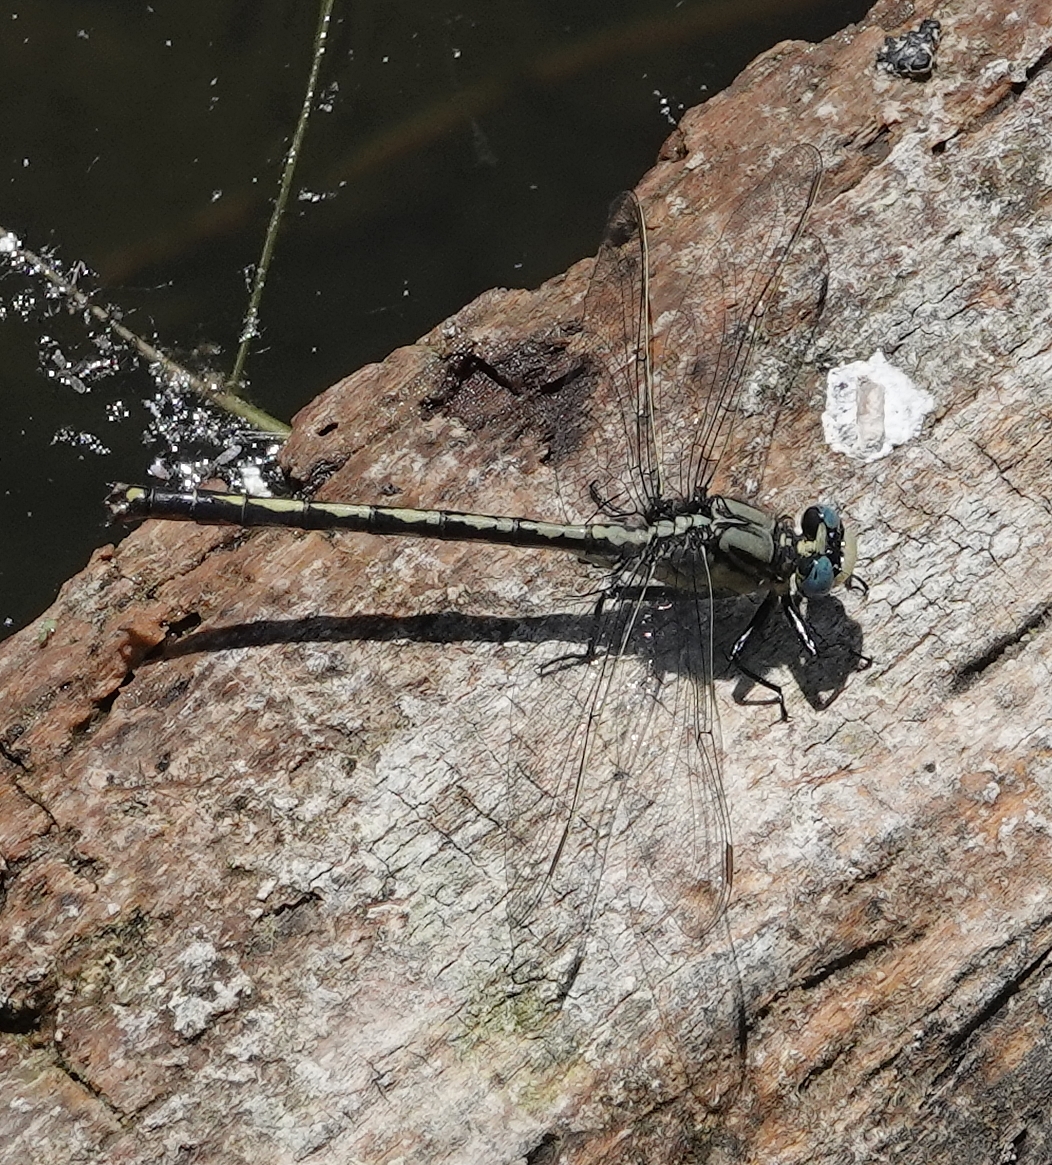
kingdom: Animalia
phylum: Arthropoda
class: Insecta
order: Odonata
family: Gomphidae
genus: Arigomphus
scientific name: Arigomphus cornutus
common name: Horned clubtail
